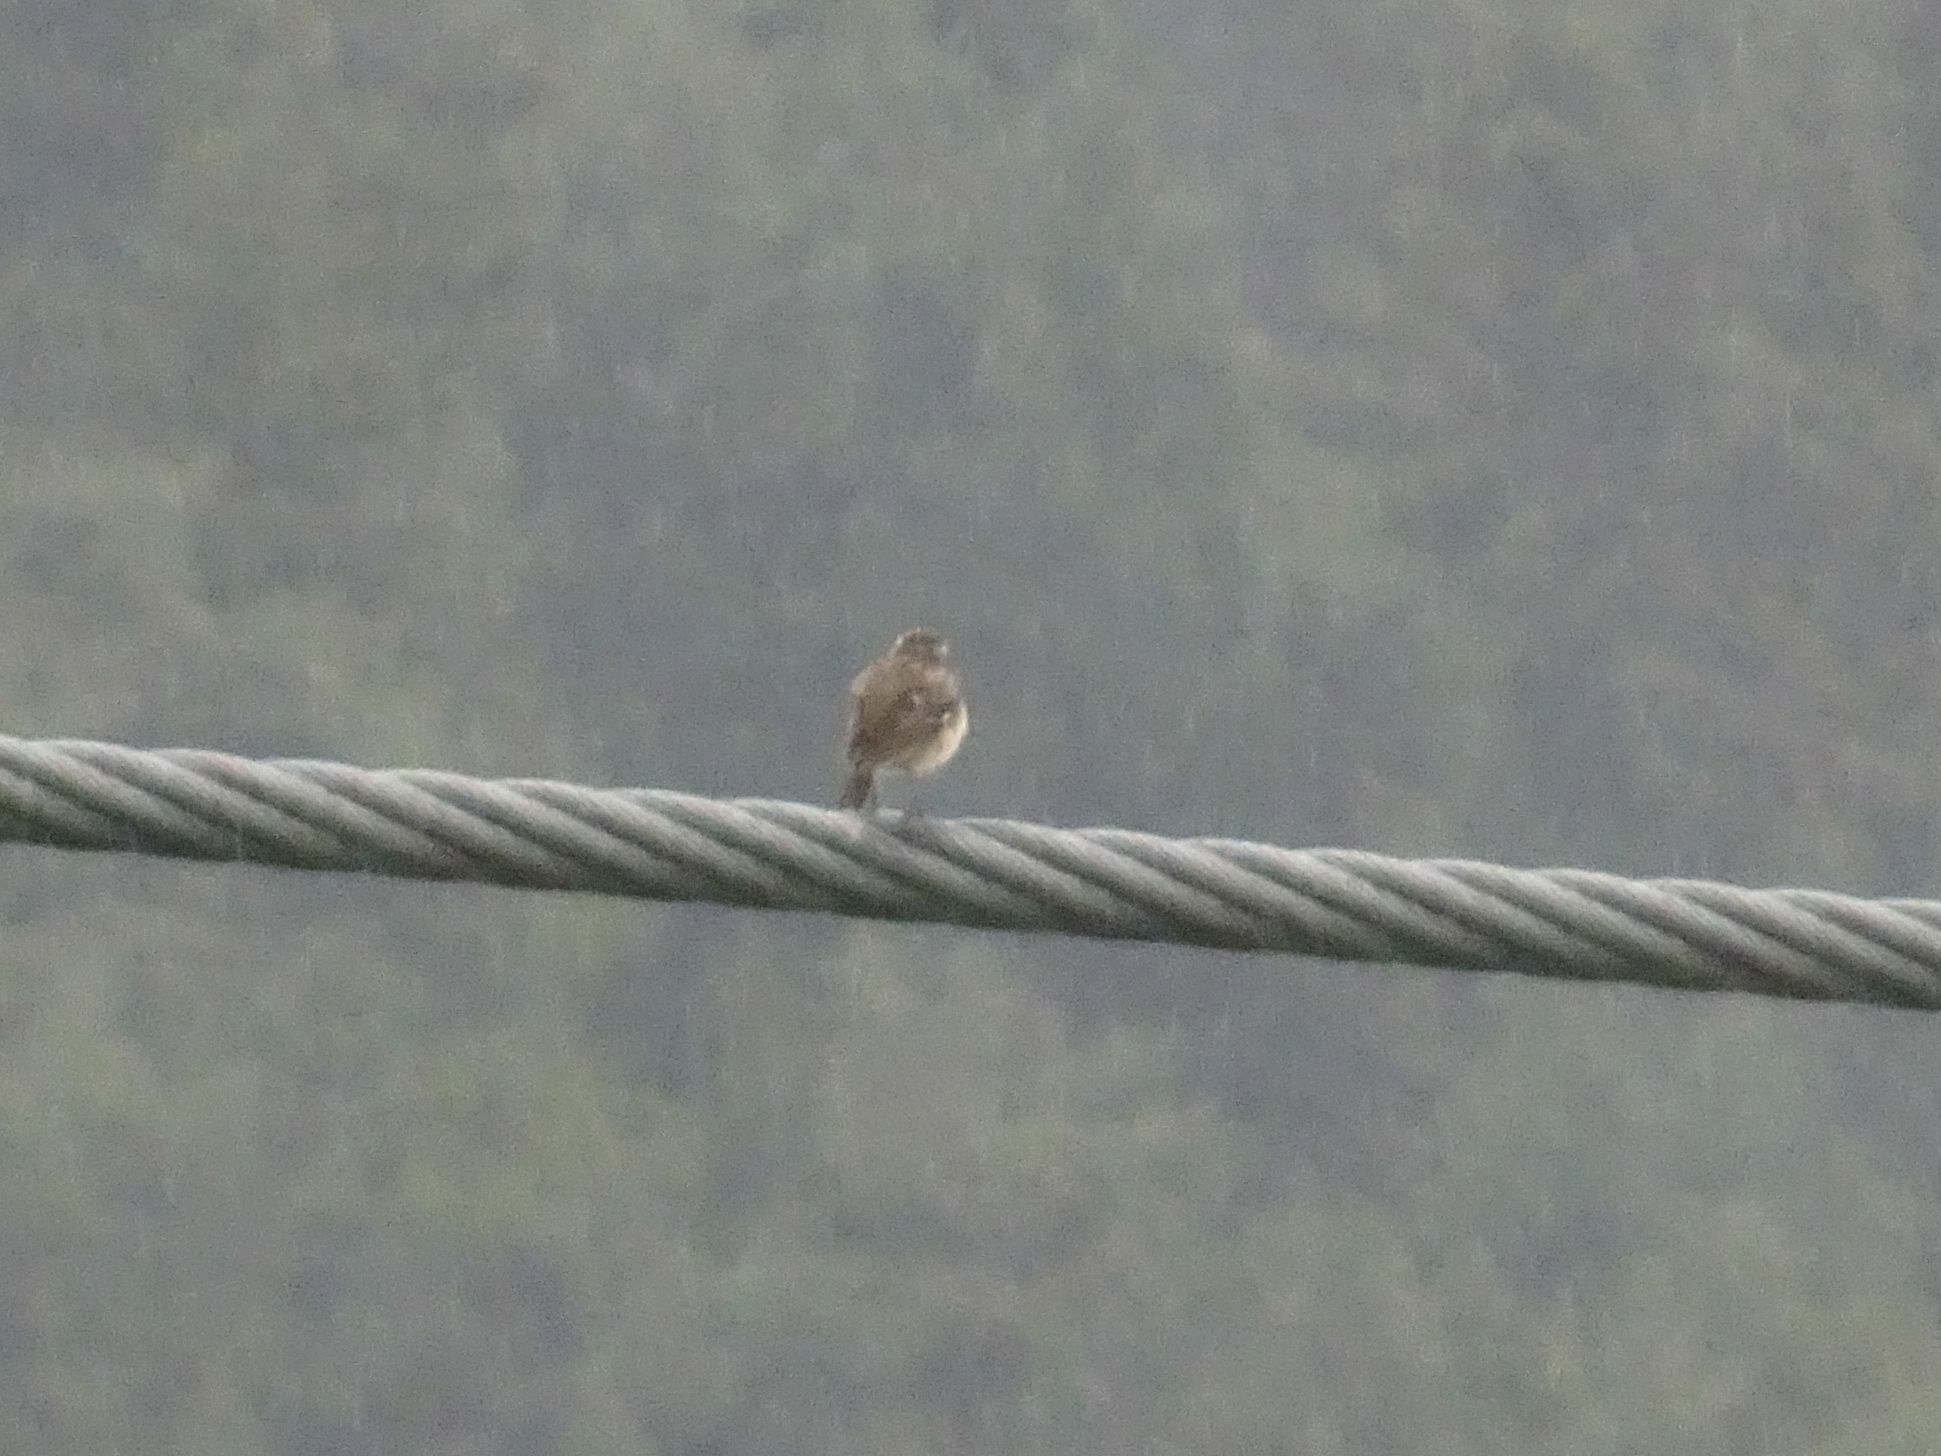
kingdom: Animalia
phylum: Chordata
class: Aves
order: Passeriformes
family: Muscicapidae
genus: Saxicola
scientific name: Saxicola rubetra
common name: Whinchat
